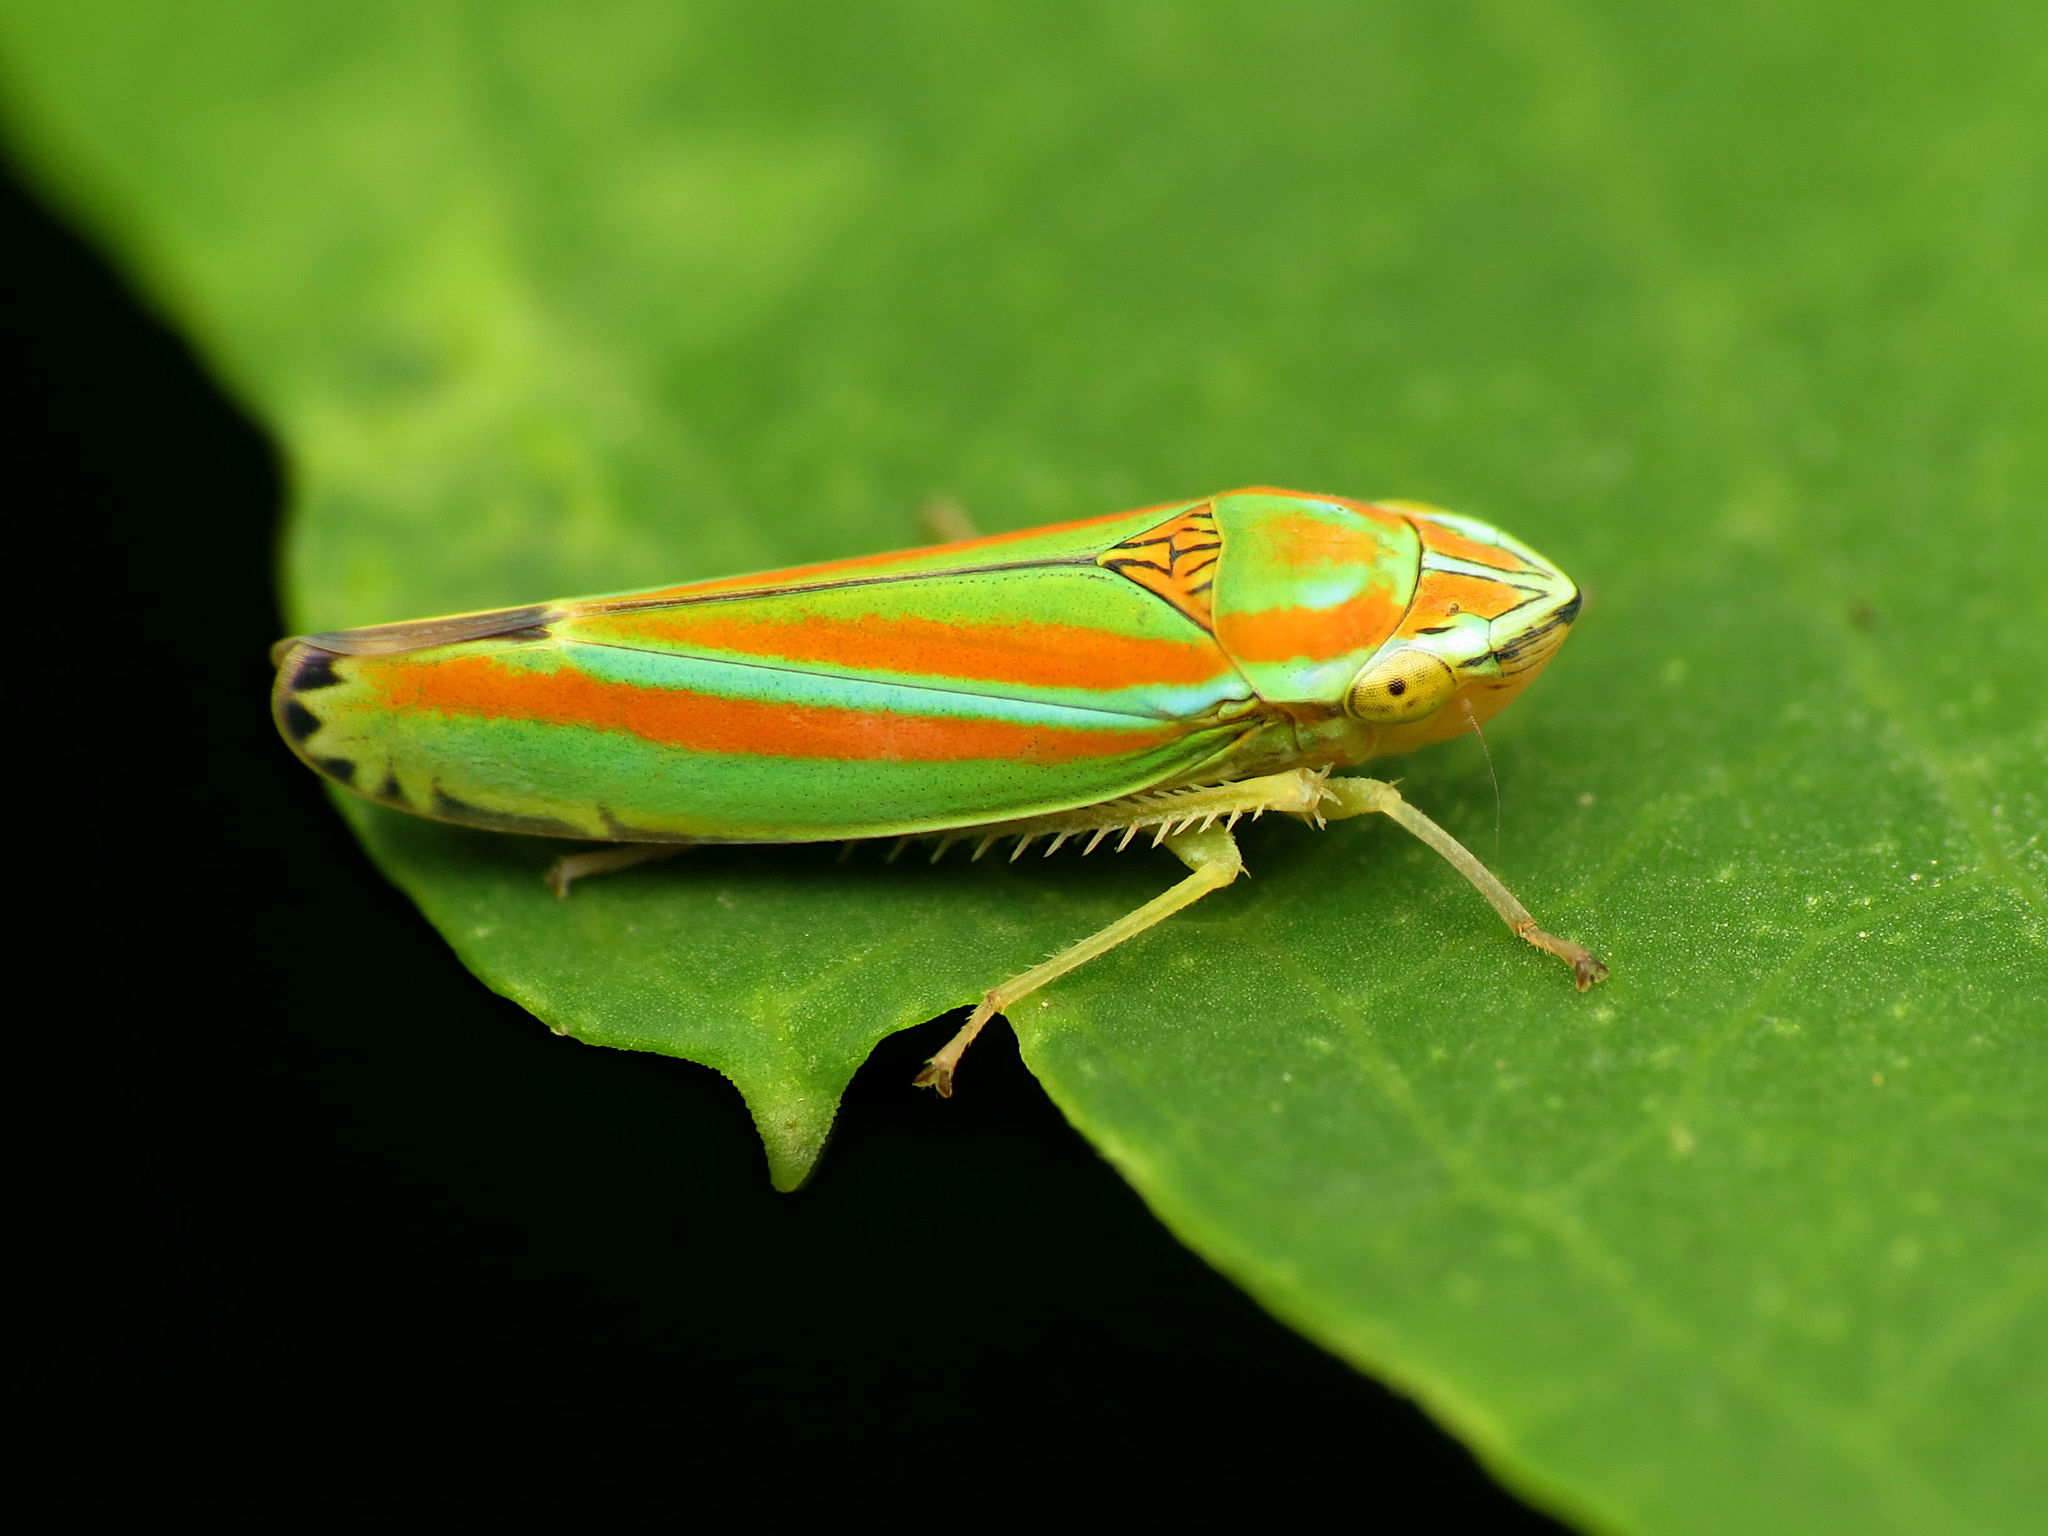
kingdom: Animalia
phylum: Arthropoda
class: Insecta
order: Hemiptera
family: Cicadellidae
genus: Graphocephala
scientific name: Graphocephala versuta
